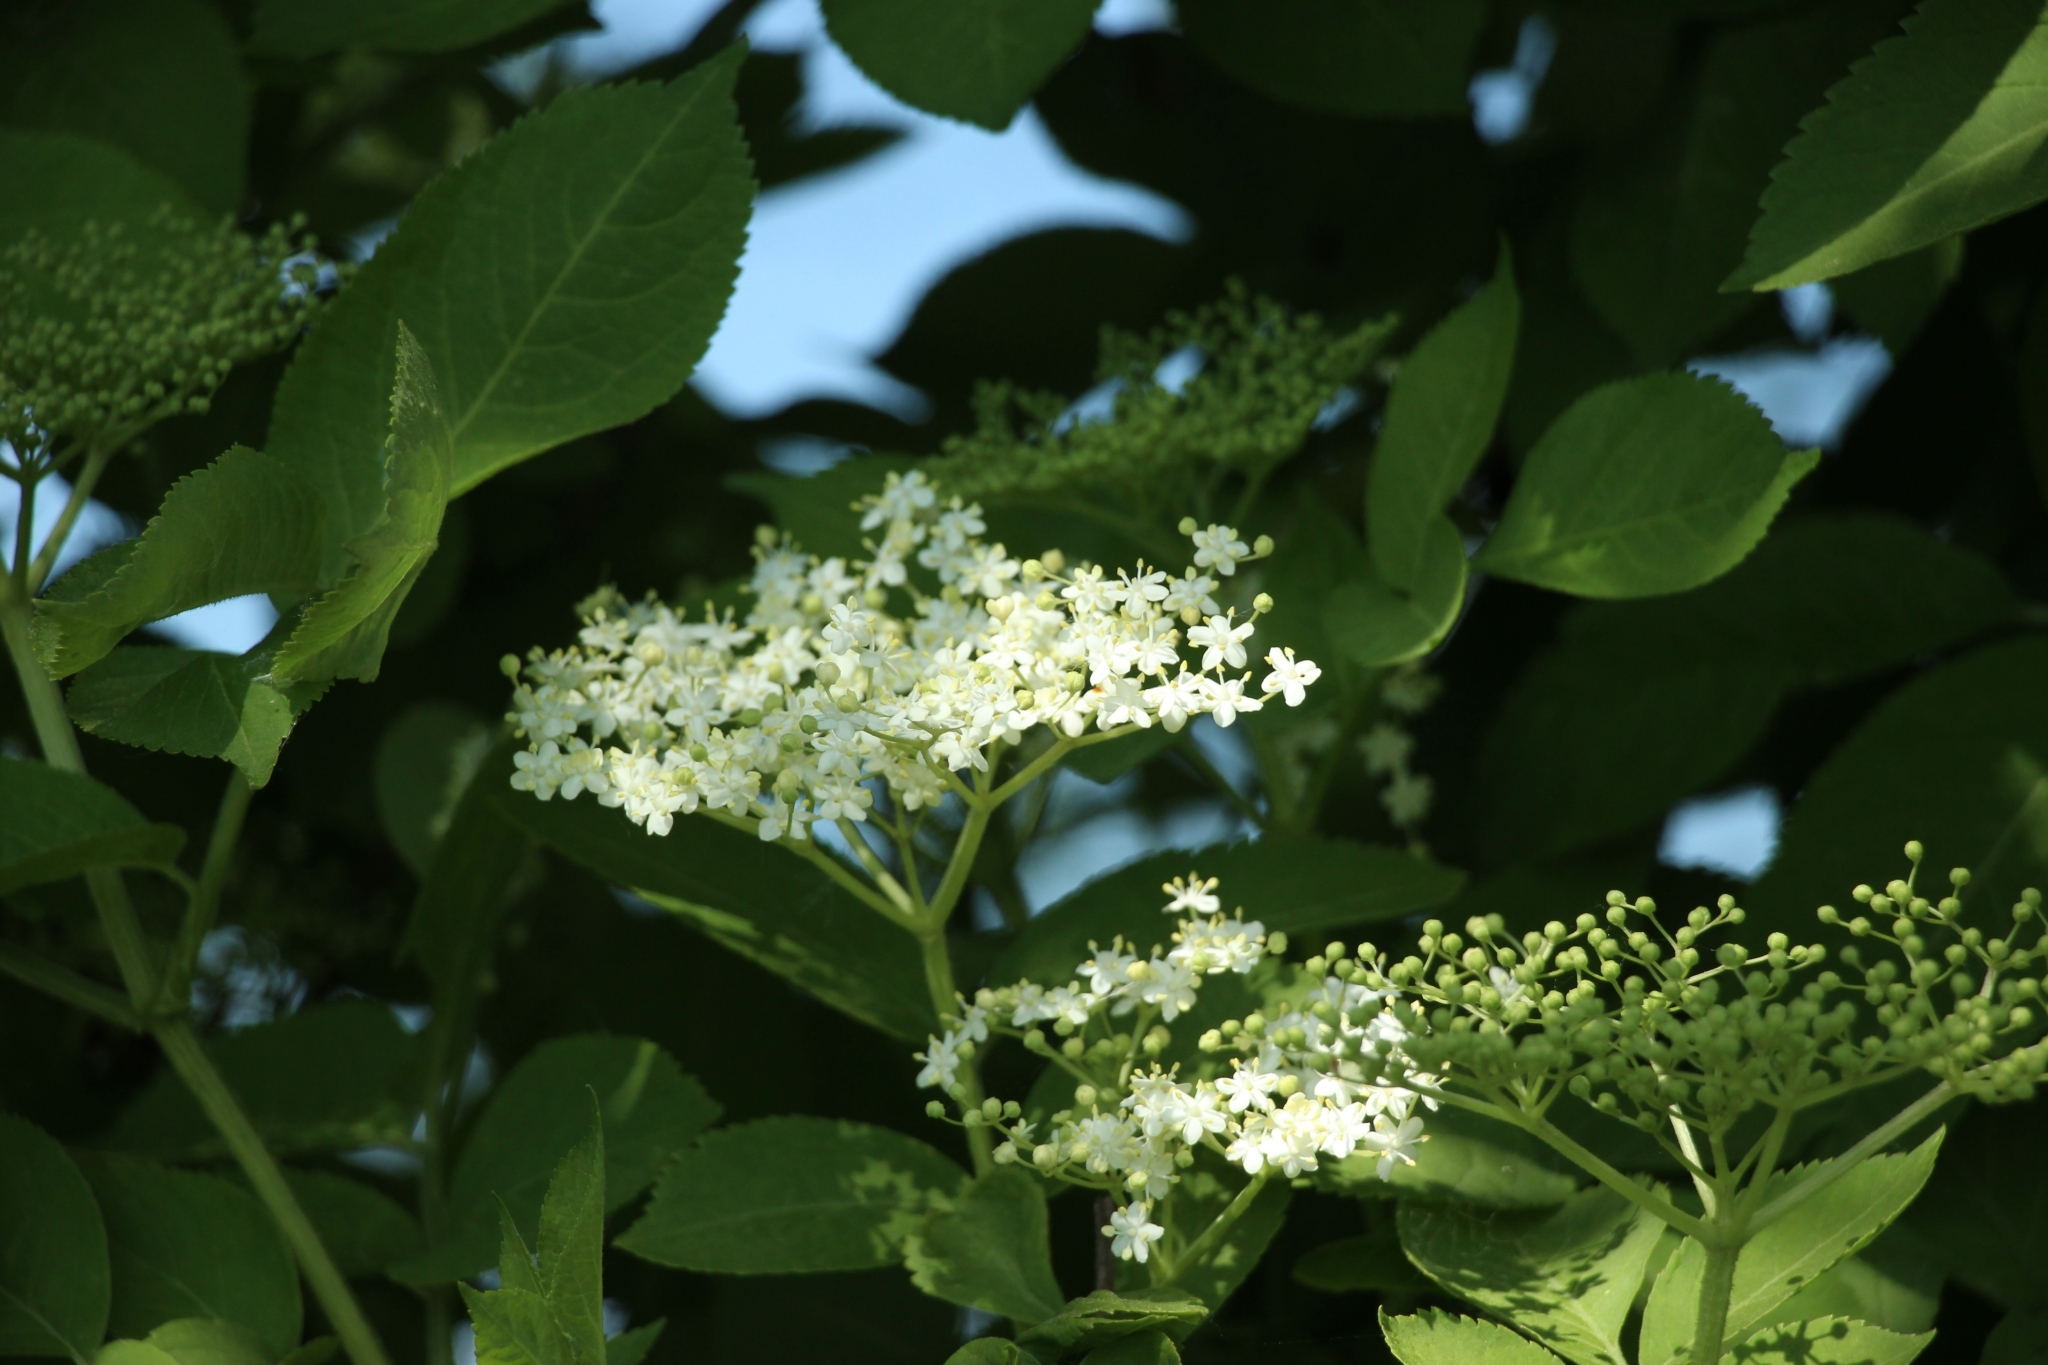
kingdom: Plantae
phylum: Tracheophyta
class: Magnoliopsida
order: Dipsacales
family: Viburnaceae
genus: Sambucus
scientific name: Sambucus nigra
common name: Elder
